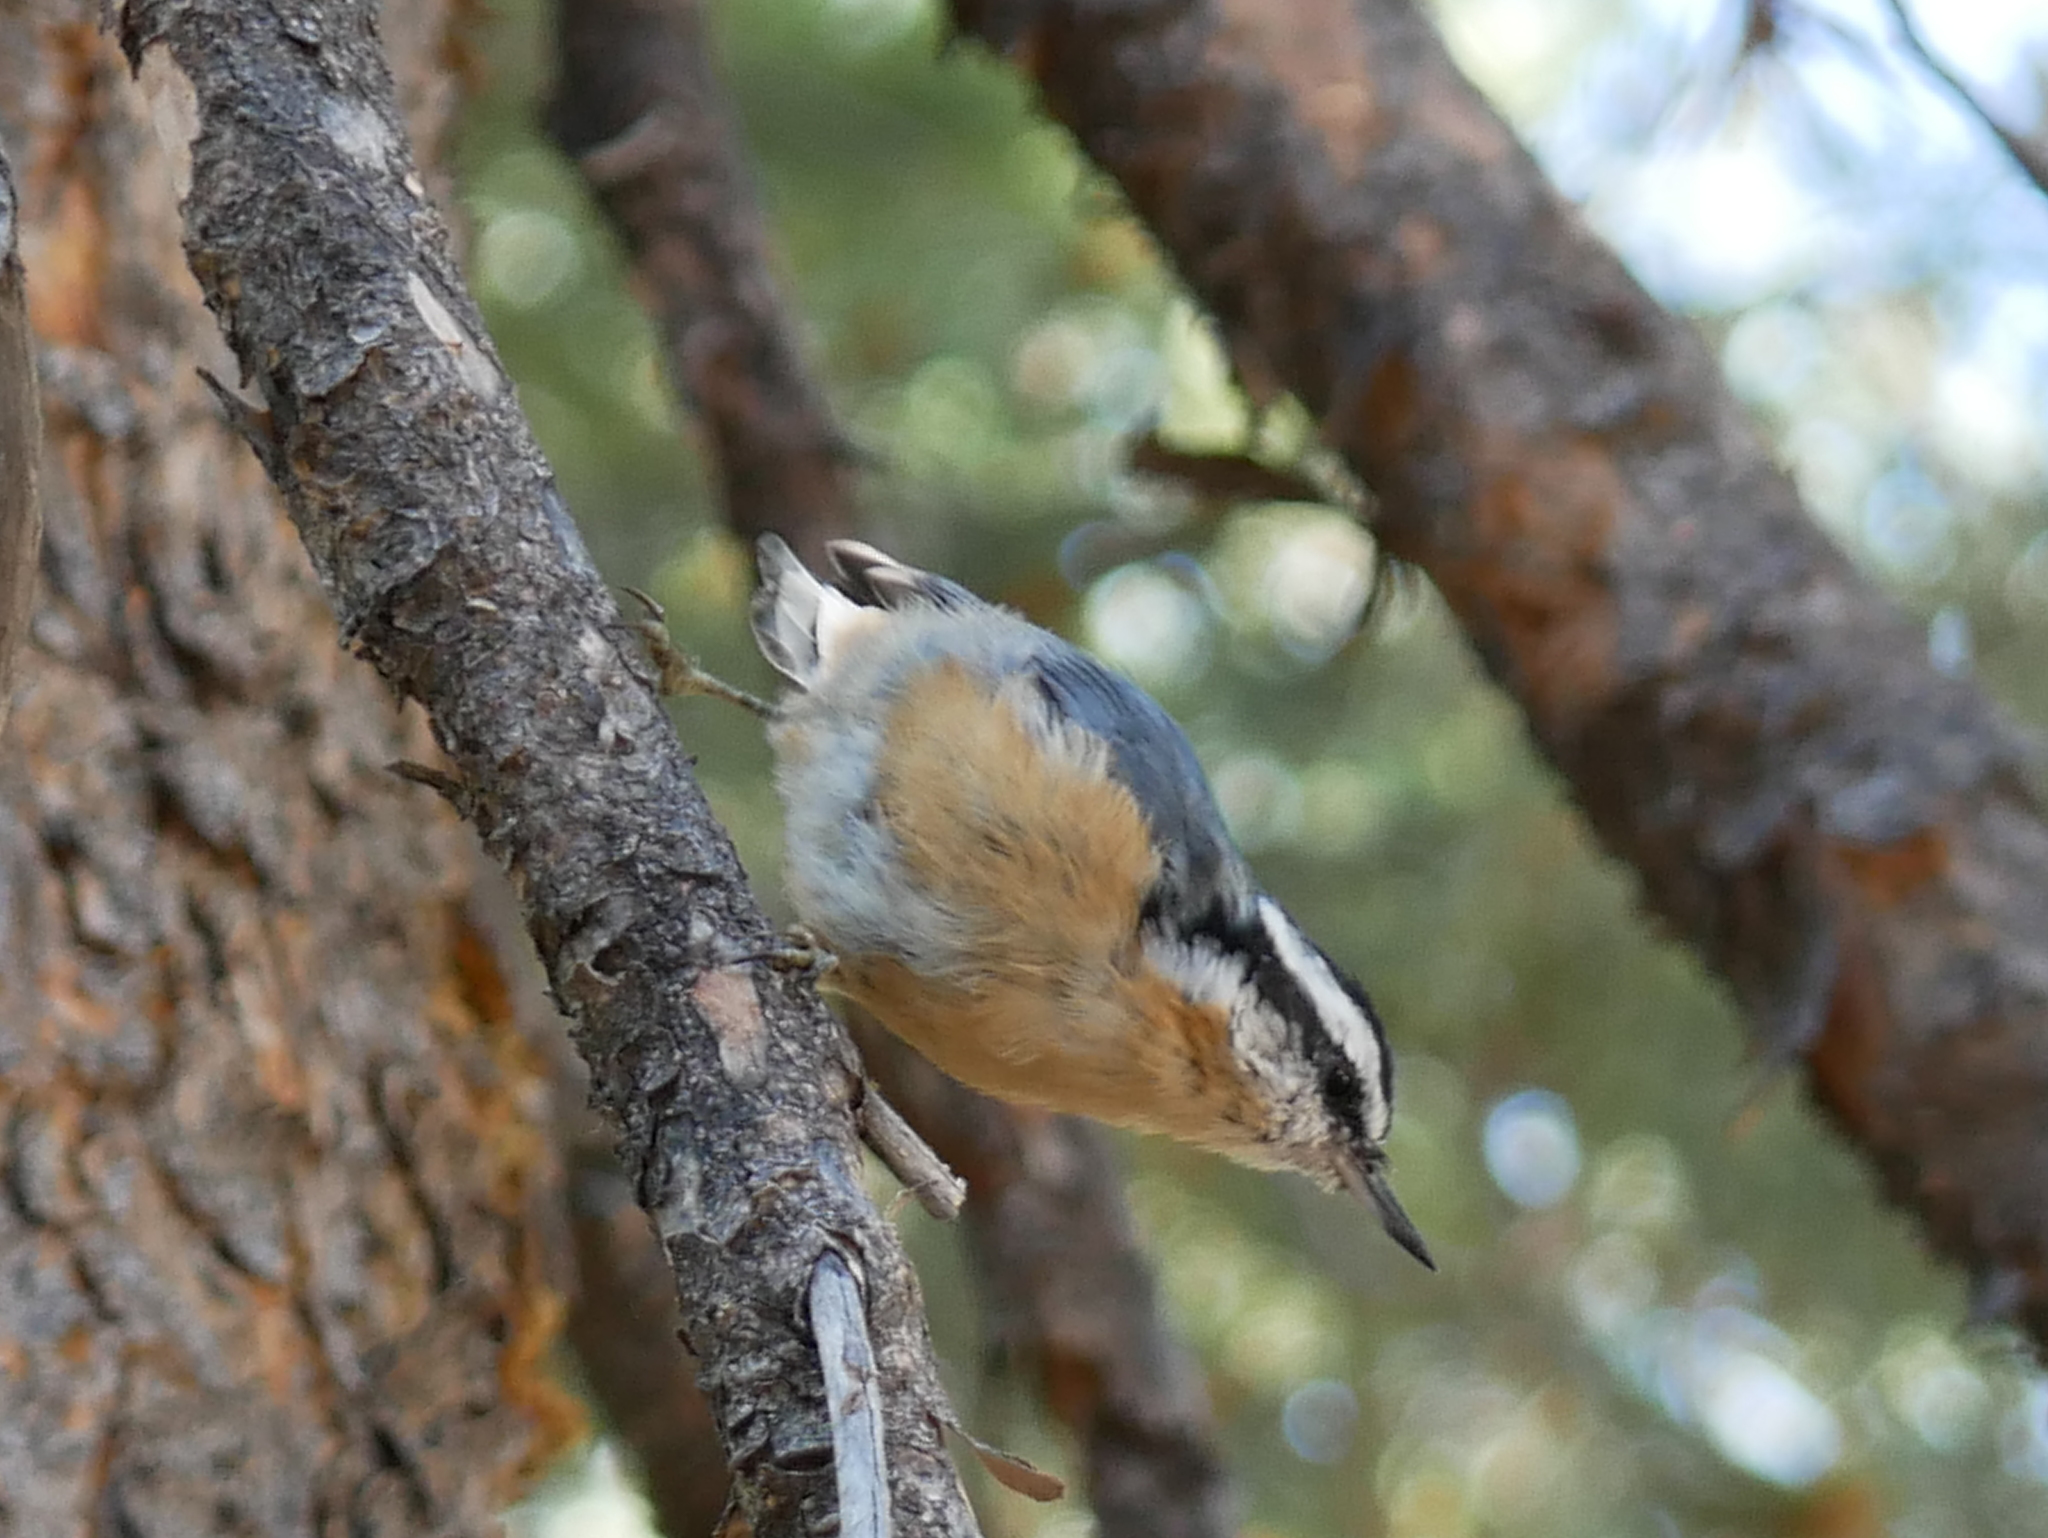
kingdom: Animalia
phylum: Chordata
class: Aves
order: Passeriformes
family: Sittidae
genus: Sitta
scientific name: Sitta canadensis
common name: Red-breasted nuthatch
